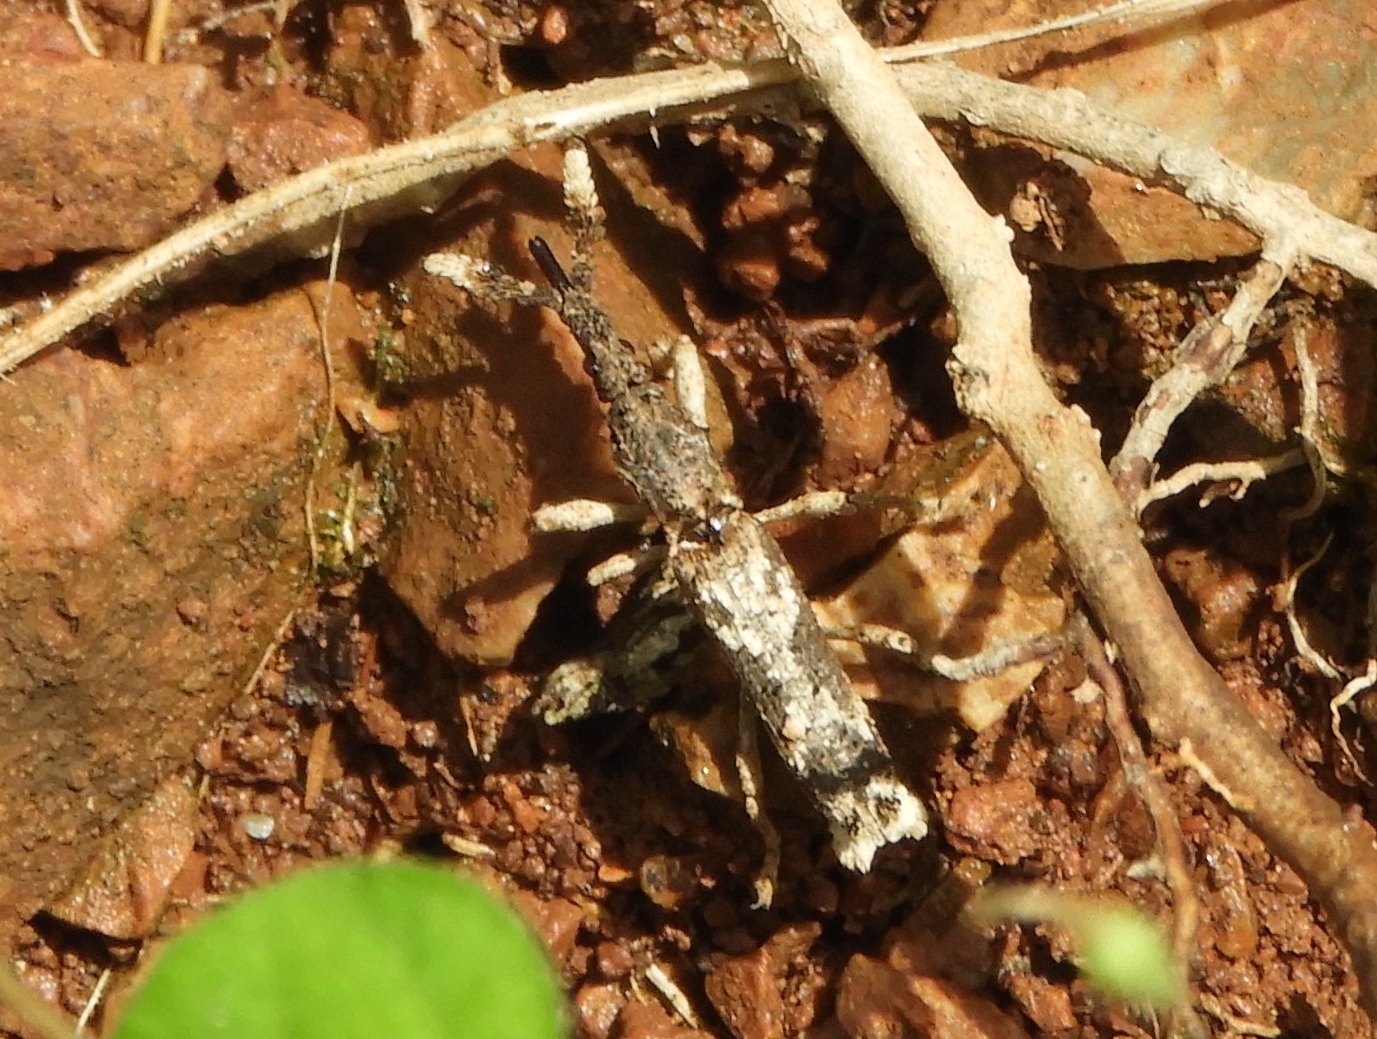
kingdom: Animalia
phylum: Arthropoda
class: Insecta
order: Coleoptera
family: Brentidae
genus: Ulocerus
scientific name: Ulocerus mexicanus
